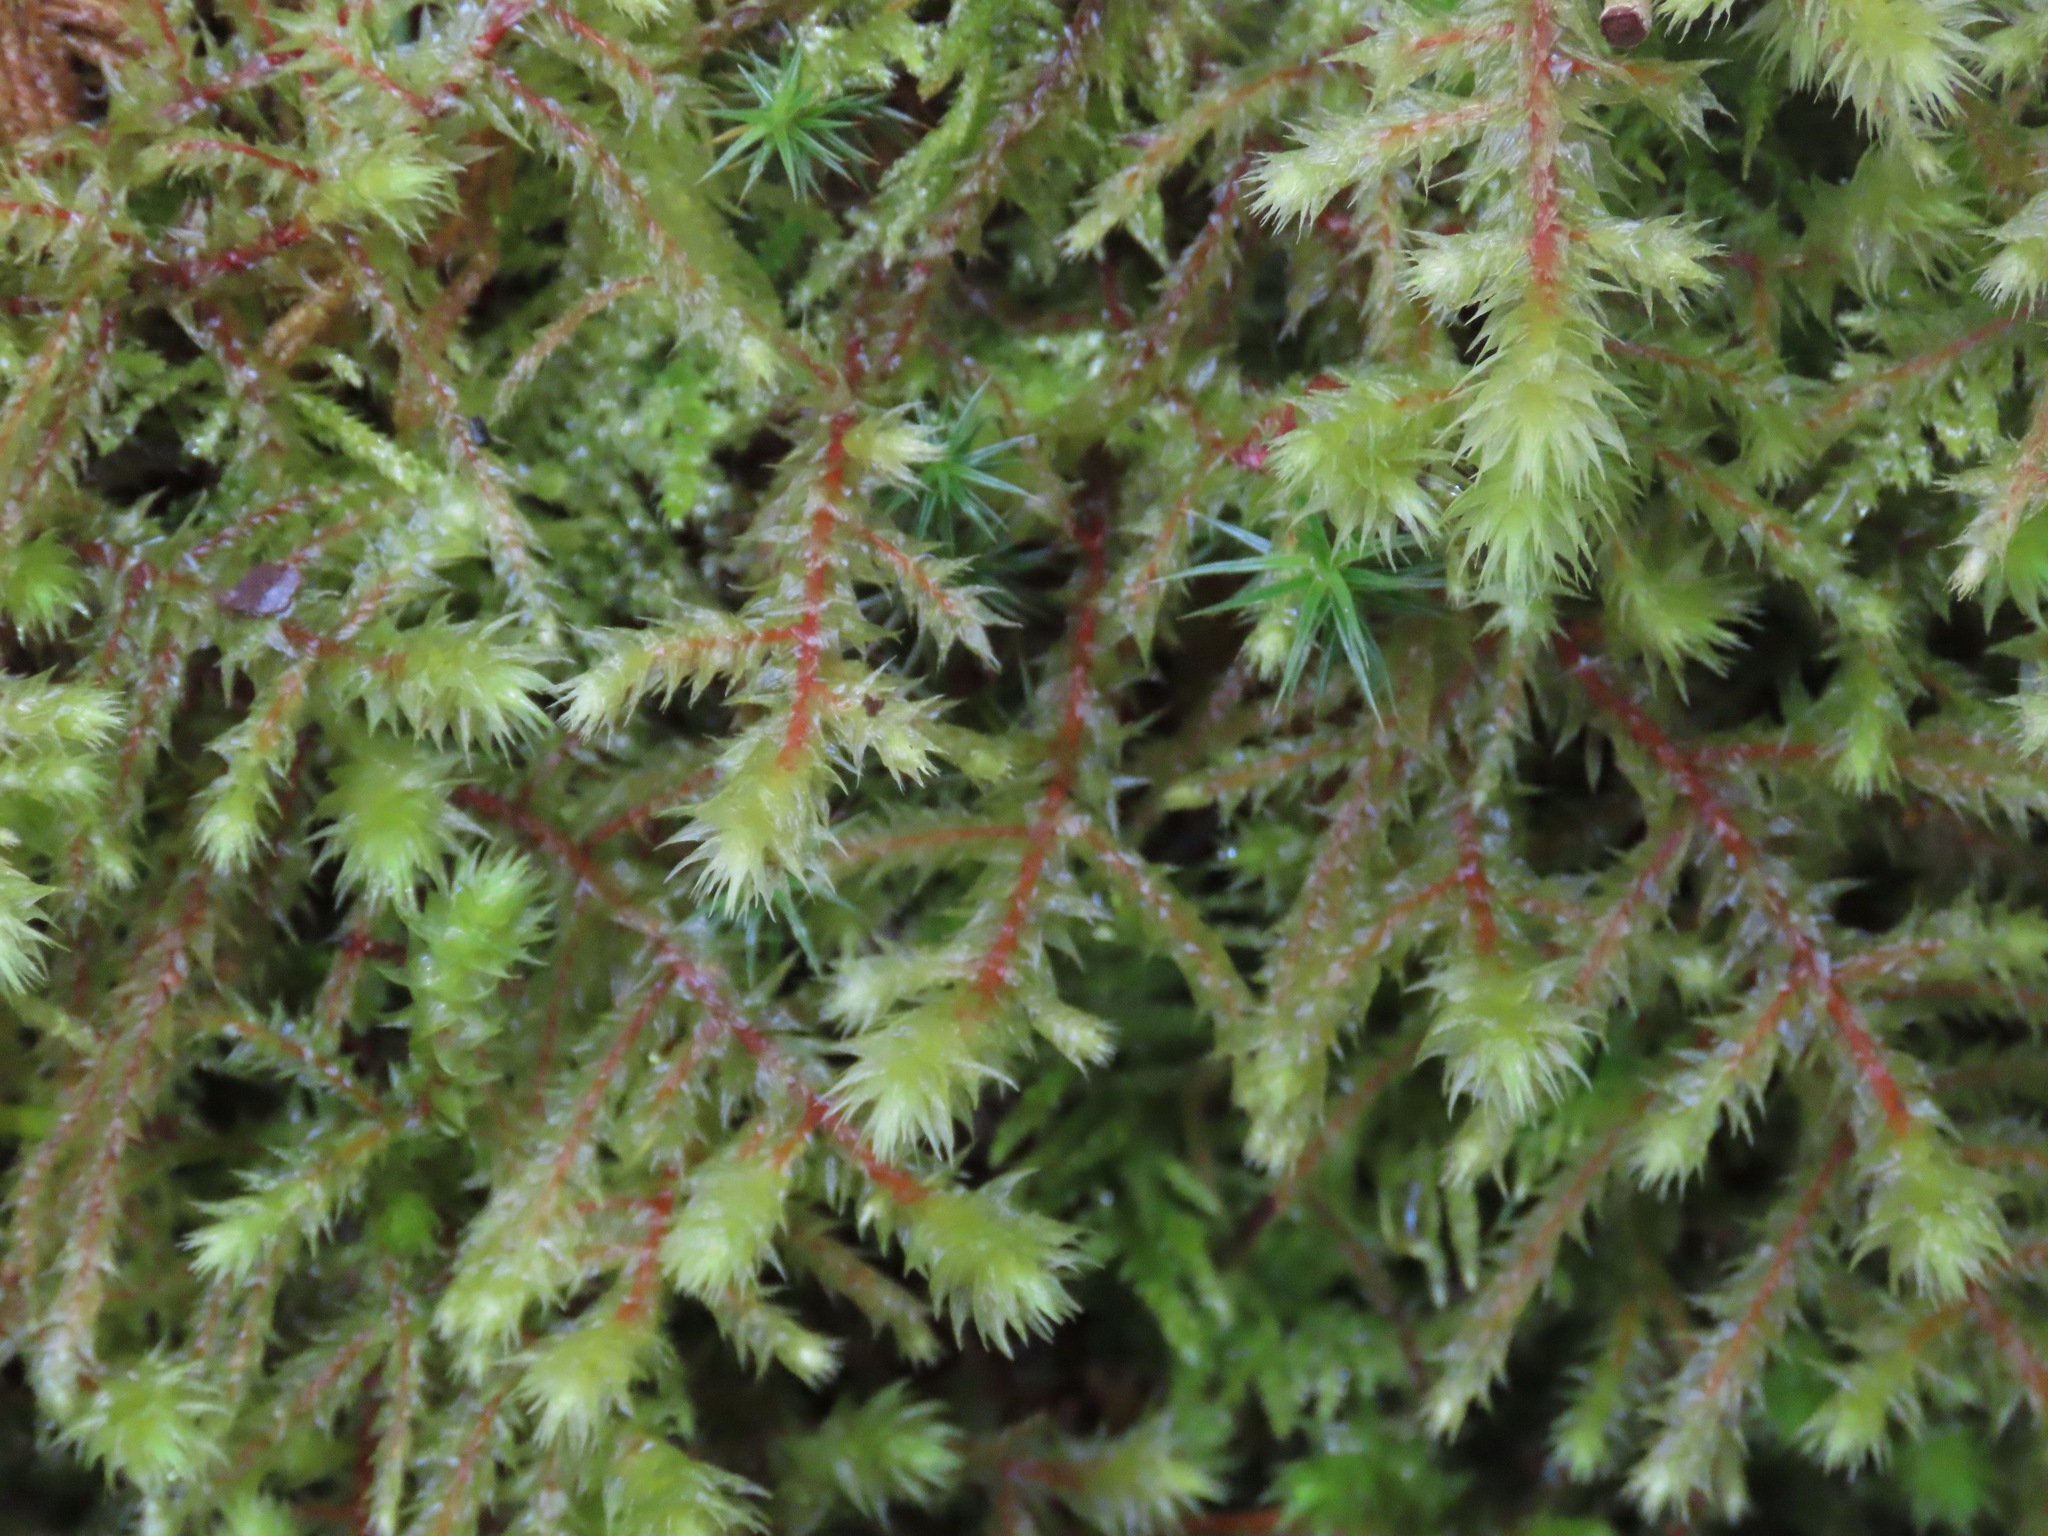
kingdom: Plantae
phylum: Bryophyta
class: Bryopsida
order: Hypnales
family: Hylocomiaceae
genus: Hylocomiadelphus
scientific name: Hylocomiadelphus triquetrus
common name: Rough goose neck moss
